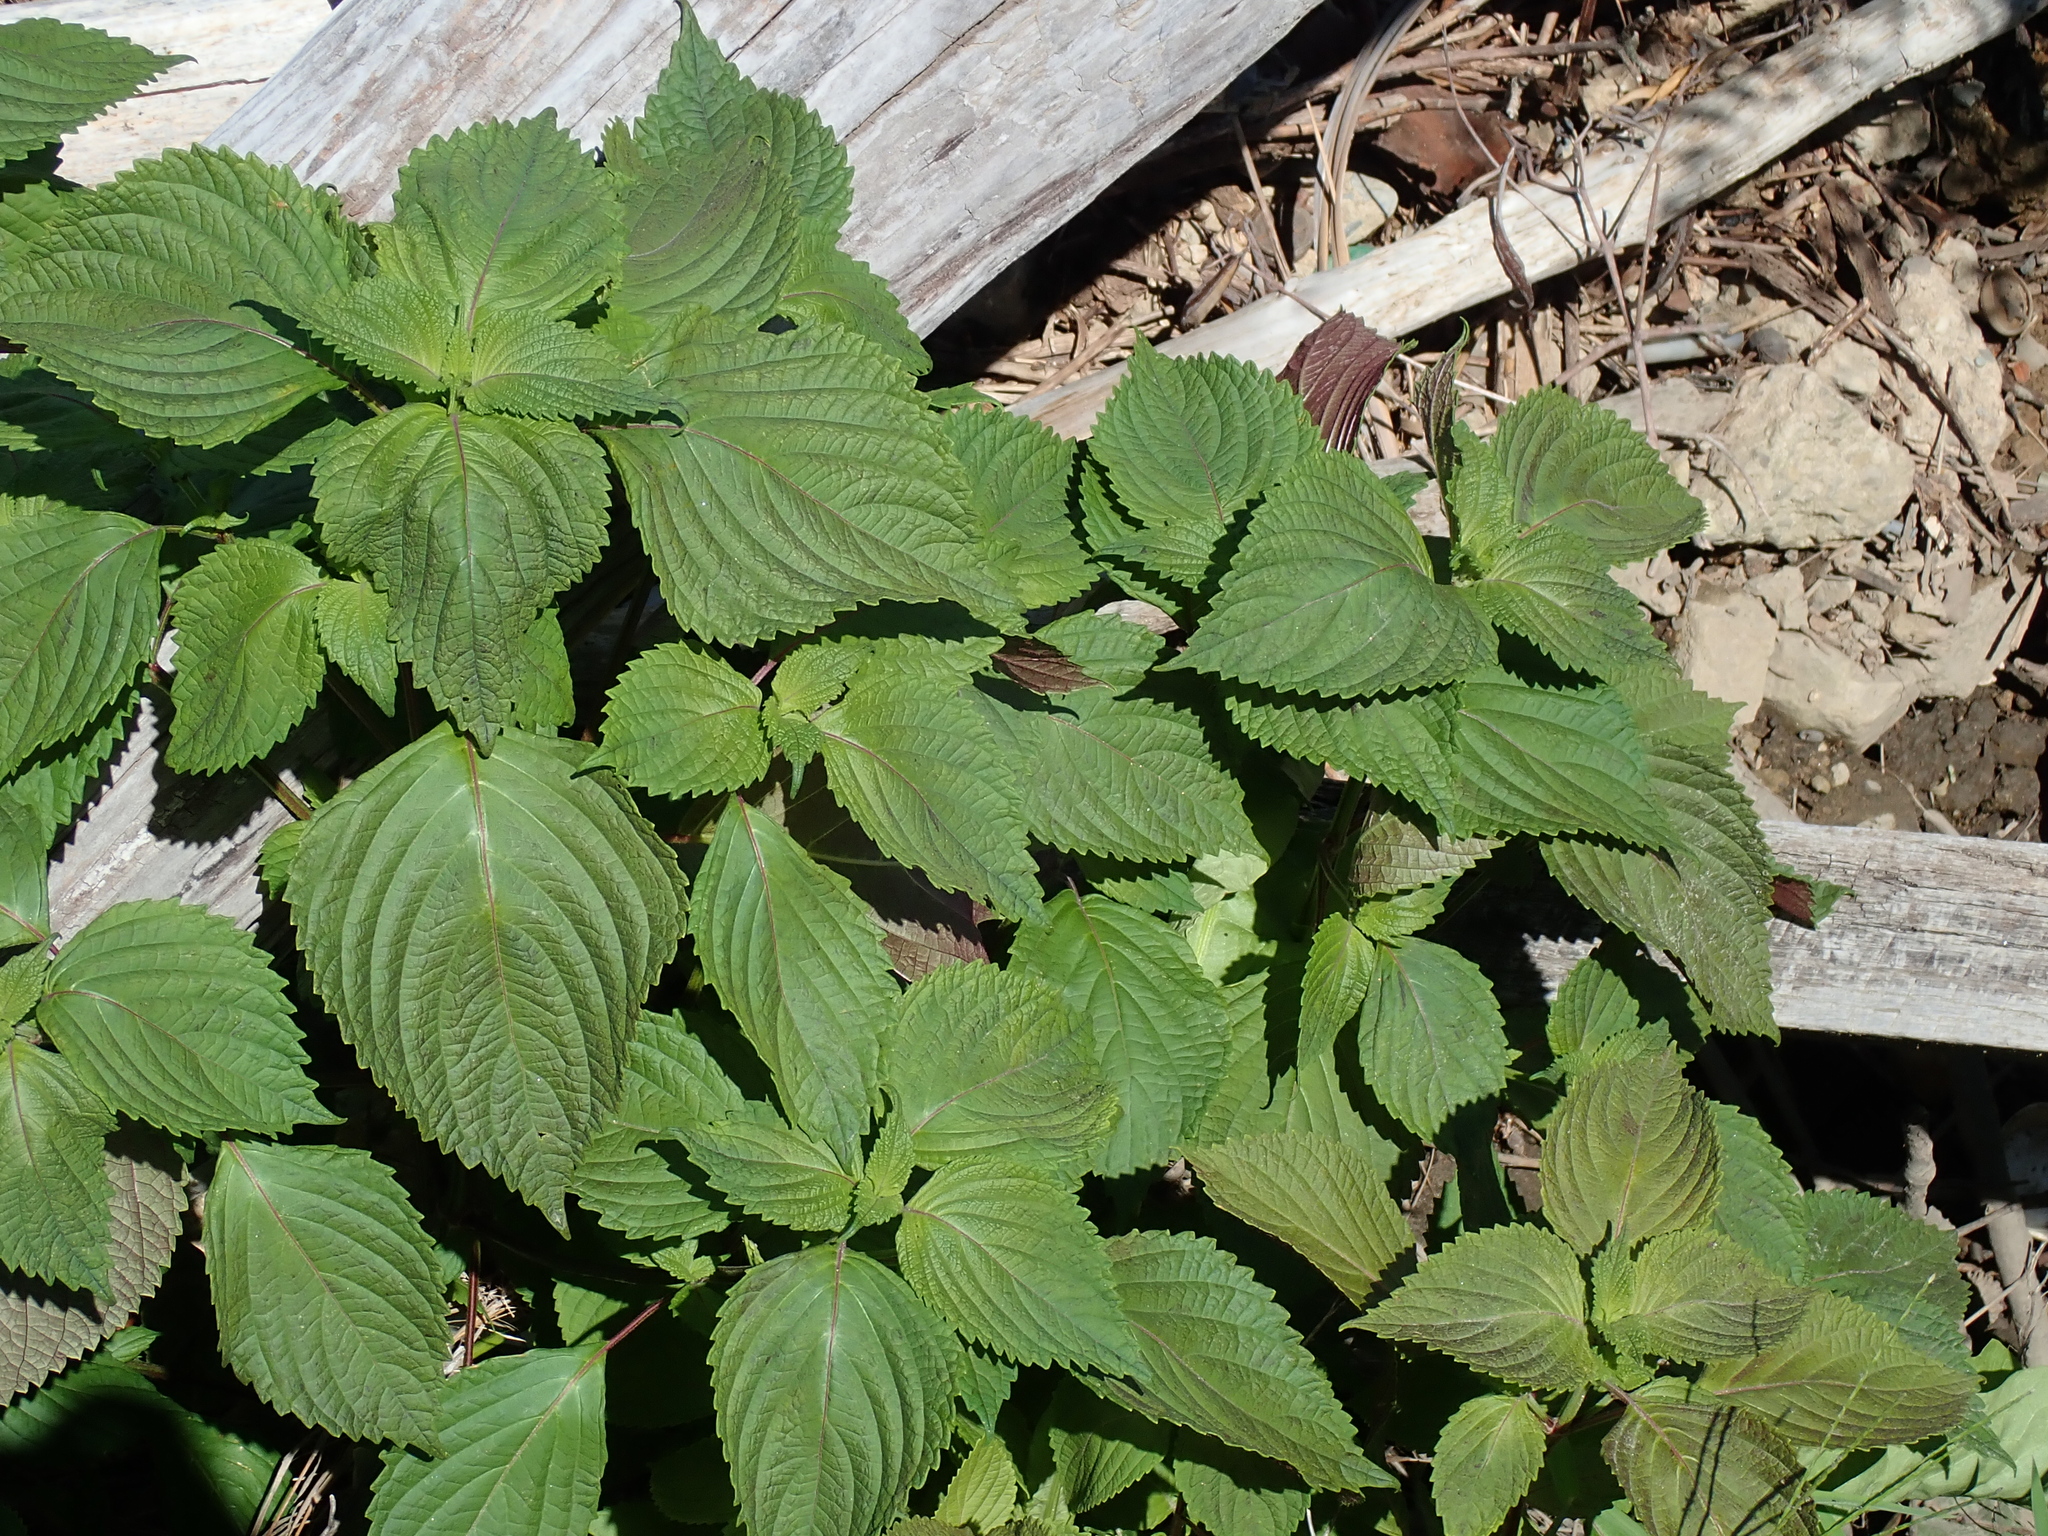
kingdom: Plantae
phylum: Tracheophyta
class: Magnoliopsida
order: Lamiales
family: Lamiaceae
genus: Perilla
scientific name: Perilla frutescens
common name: Perilla
